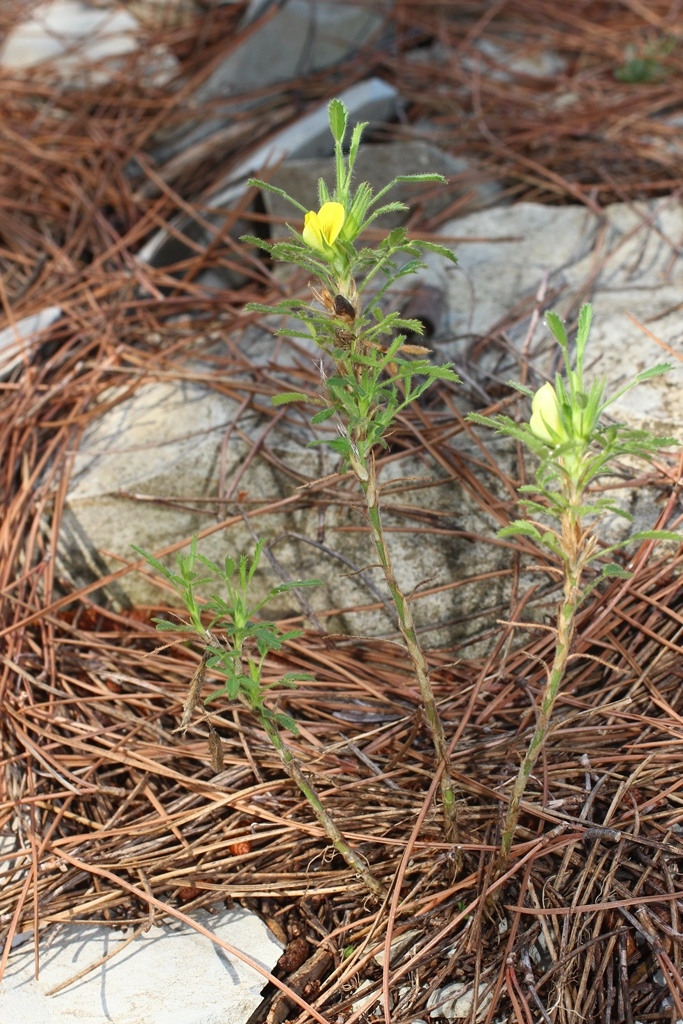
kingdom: Plantae
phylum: Tracheophyta
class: Magnoliopsida
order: Fabales
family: Fabaceae
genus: Ononis
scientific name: Ononis pusilla
